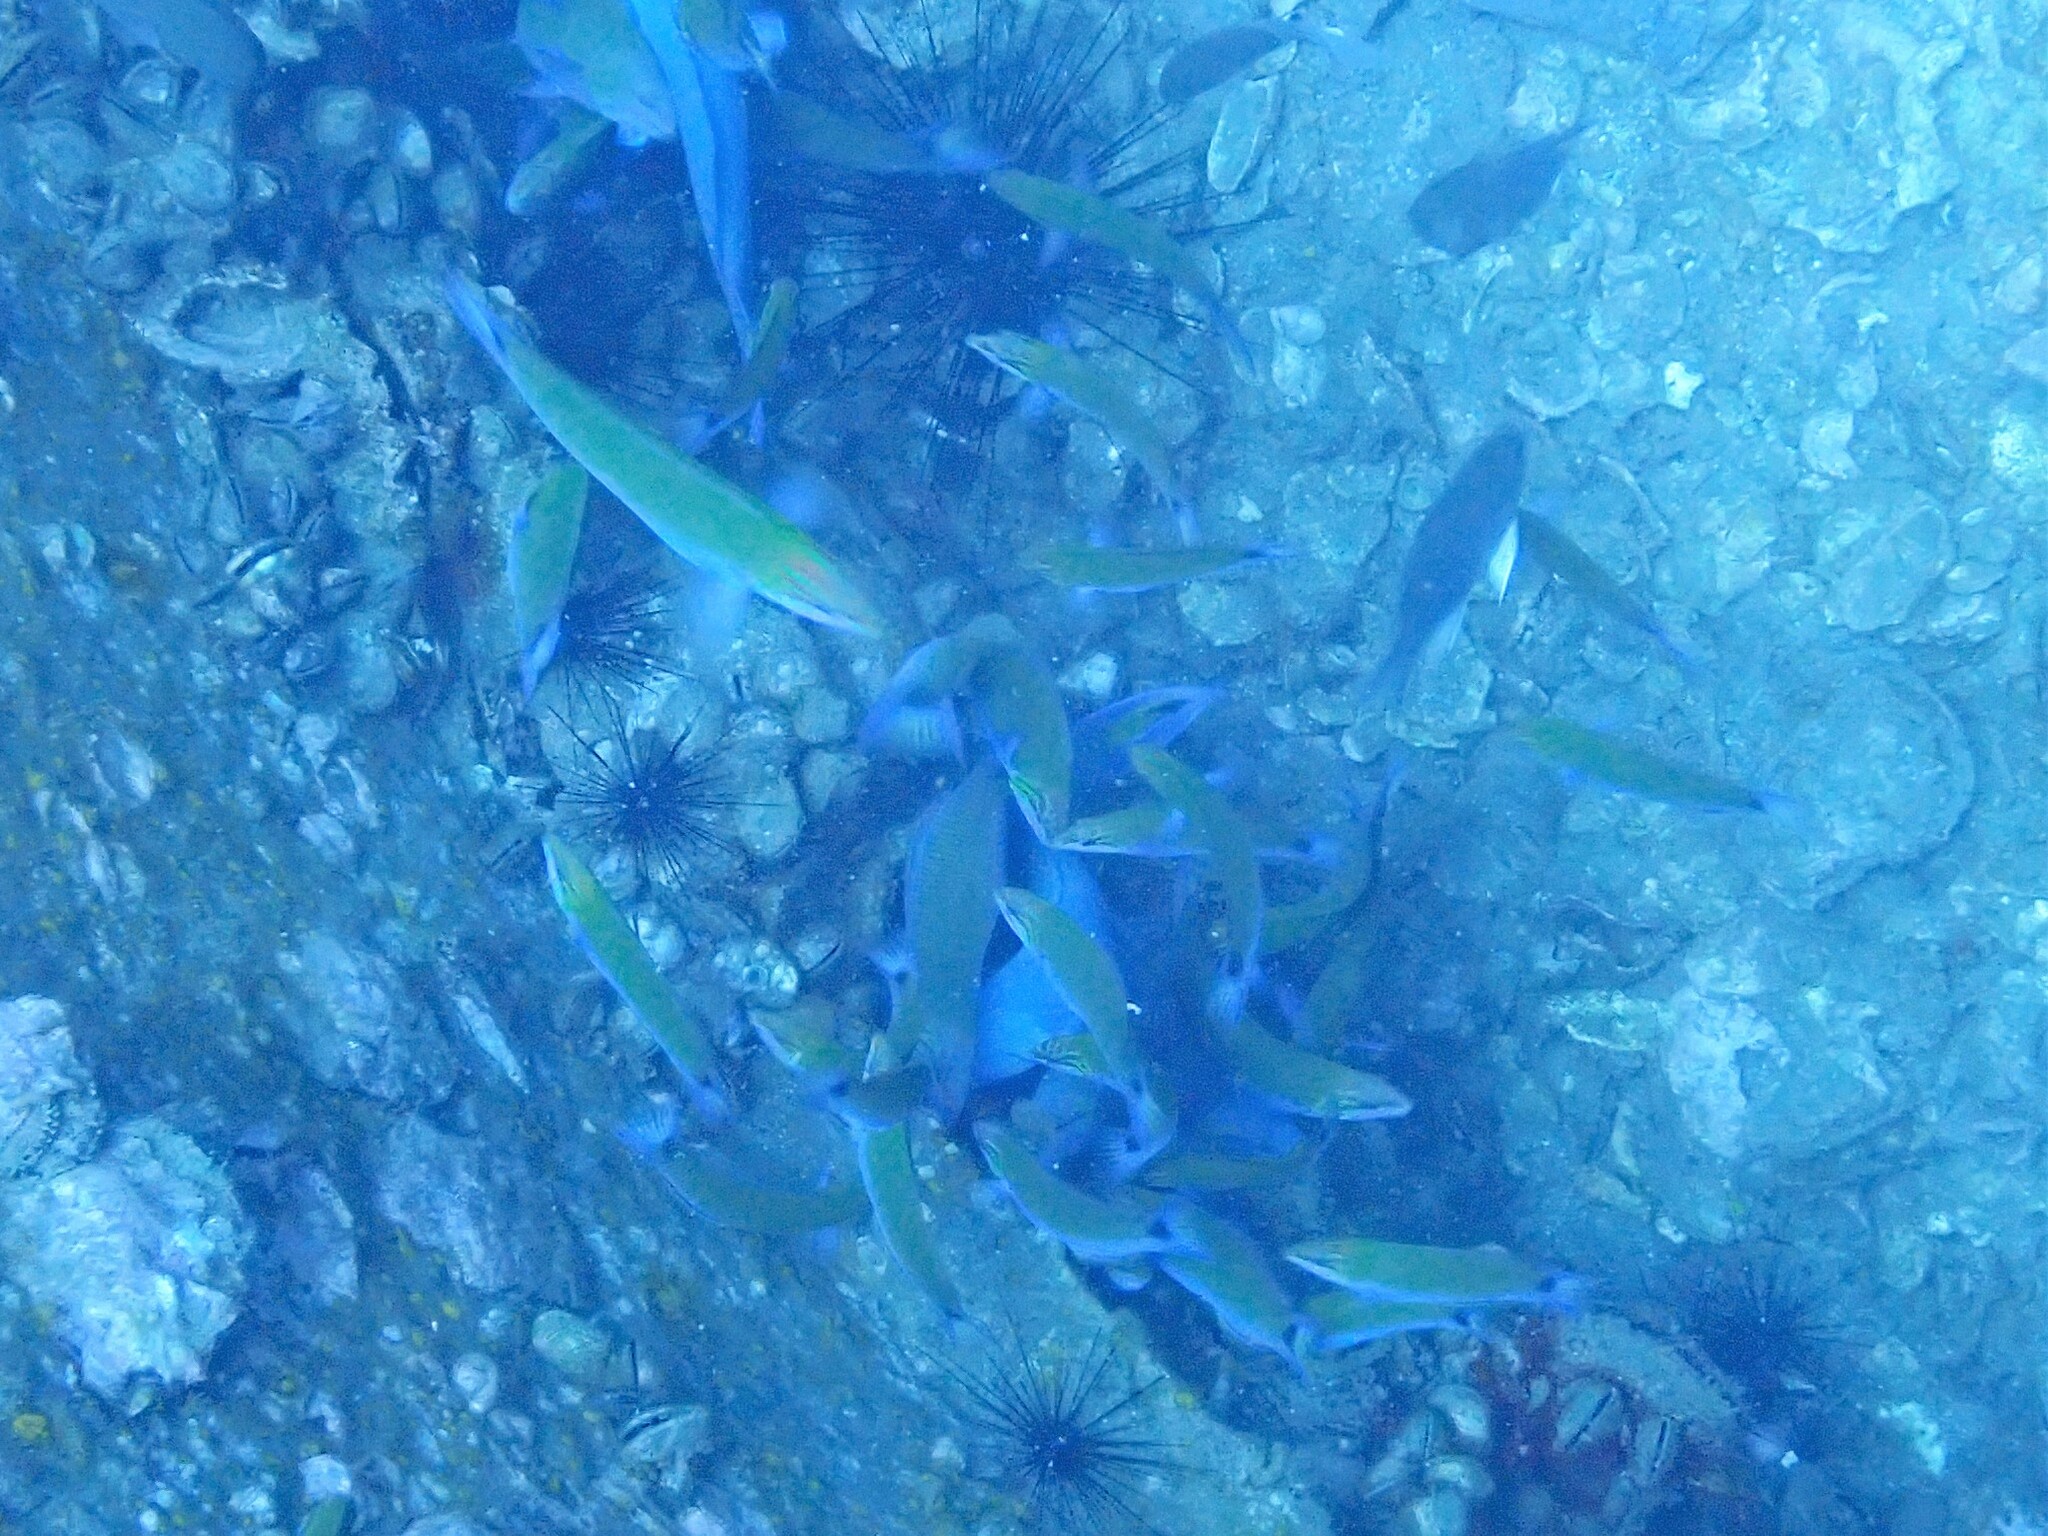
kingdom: Animalia
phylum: Chordata
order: Perciformes
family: Labridae
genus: Thalassoma
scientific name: Thalassoma lunare
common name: Blue wrasse
